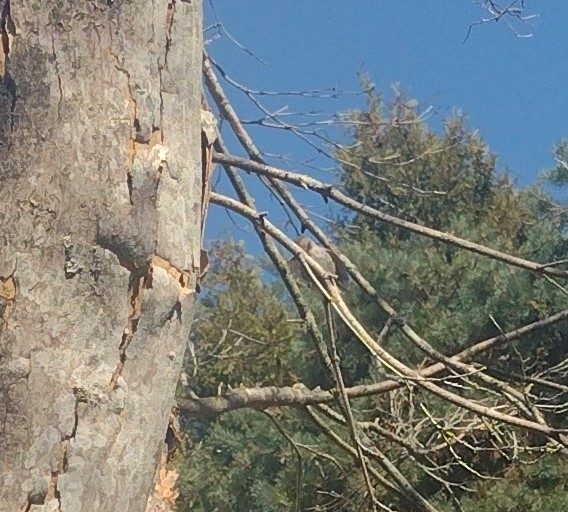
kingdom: Animalia
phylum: Chordata
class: Aves
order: Passeriformes
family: Aegithalidae
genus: Psaltriparus
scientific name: Psaltriparus minimus
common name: American bushtit
